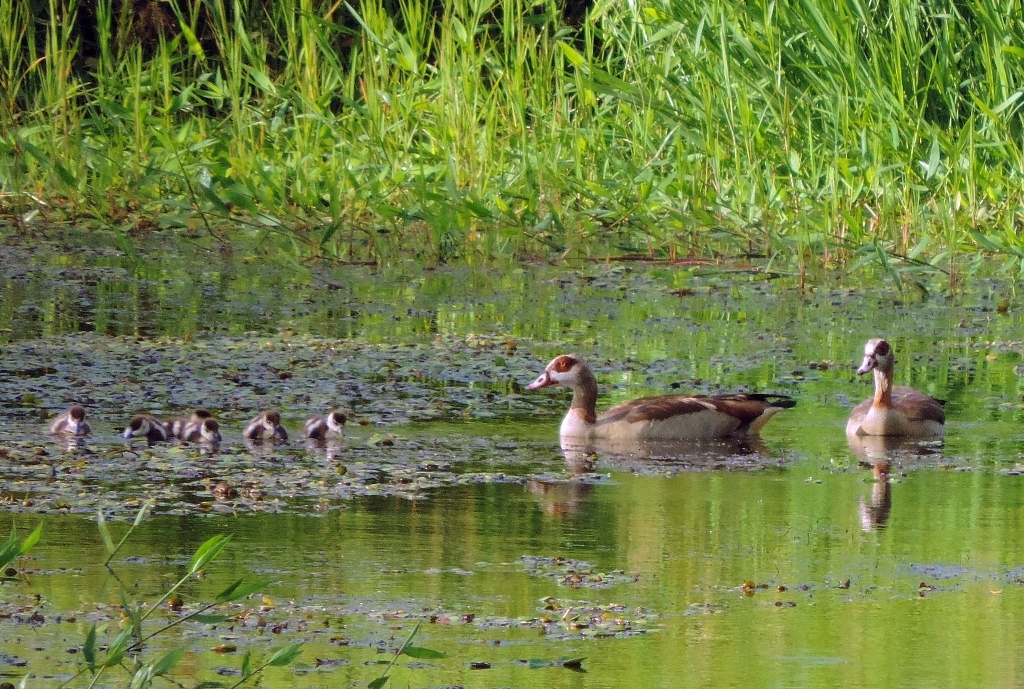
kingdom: Animalia
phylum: Chordata
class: Aves
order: Anseriformes
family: Anatidae
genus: Alopochen
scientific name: Alopochen aegyptiaca
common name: Egyptian goose
